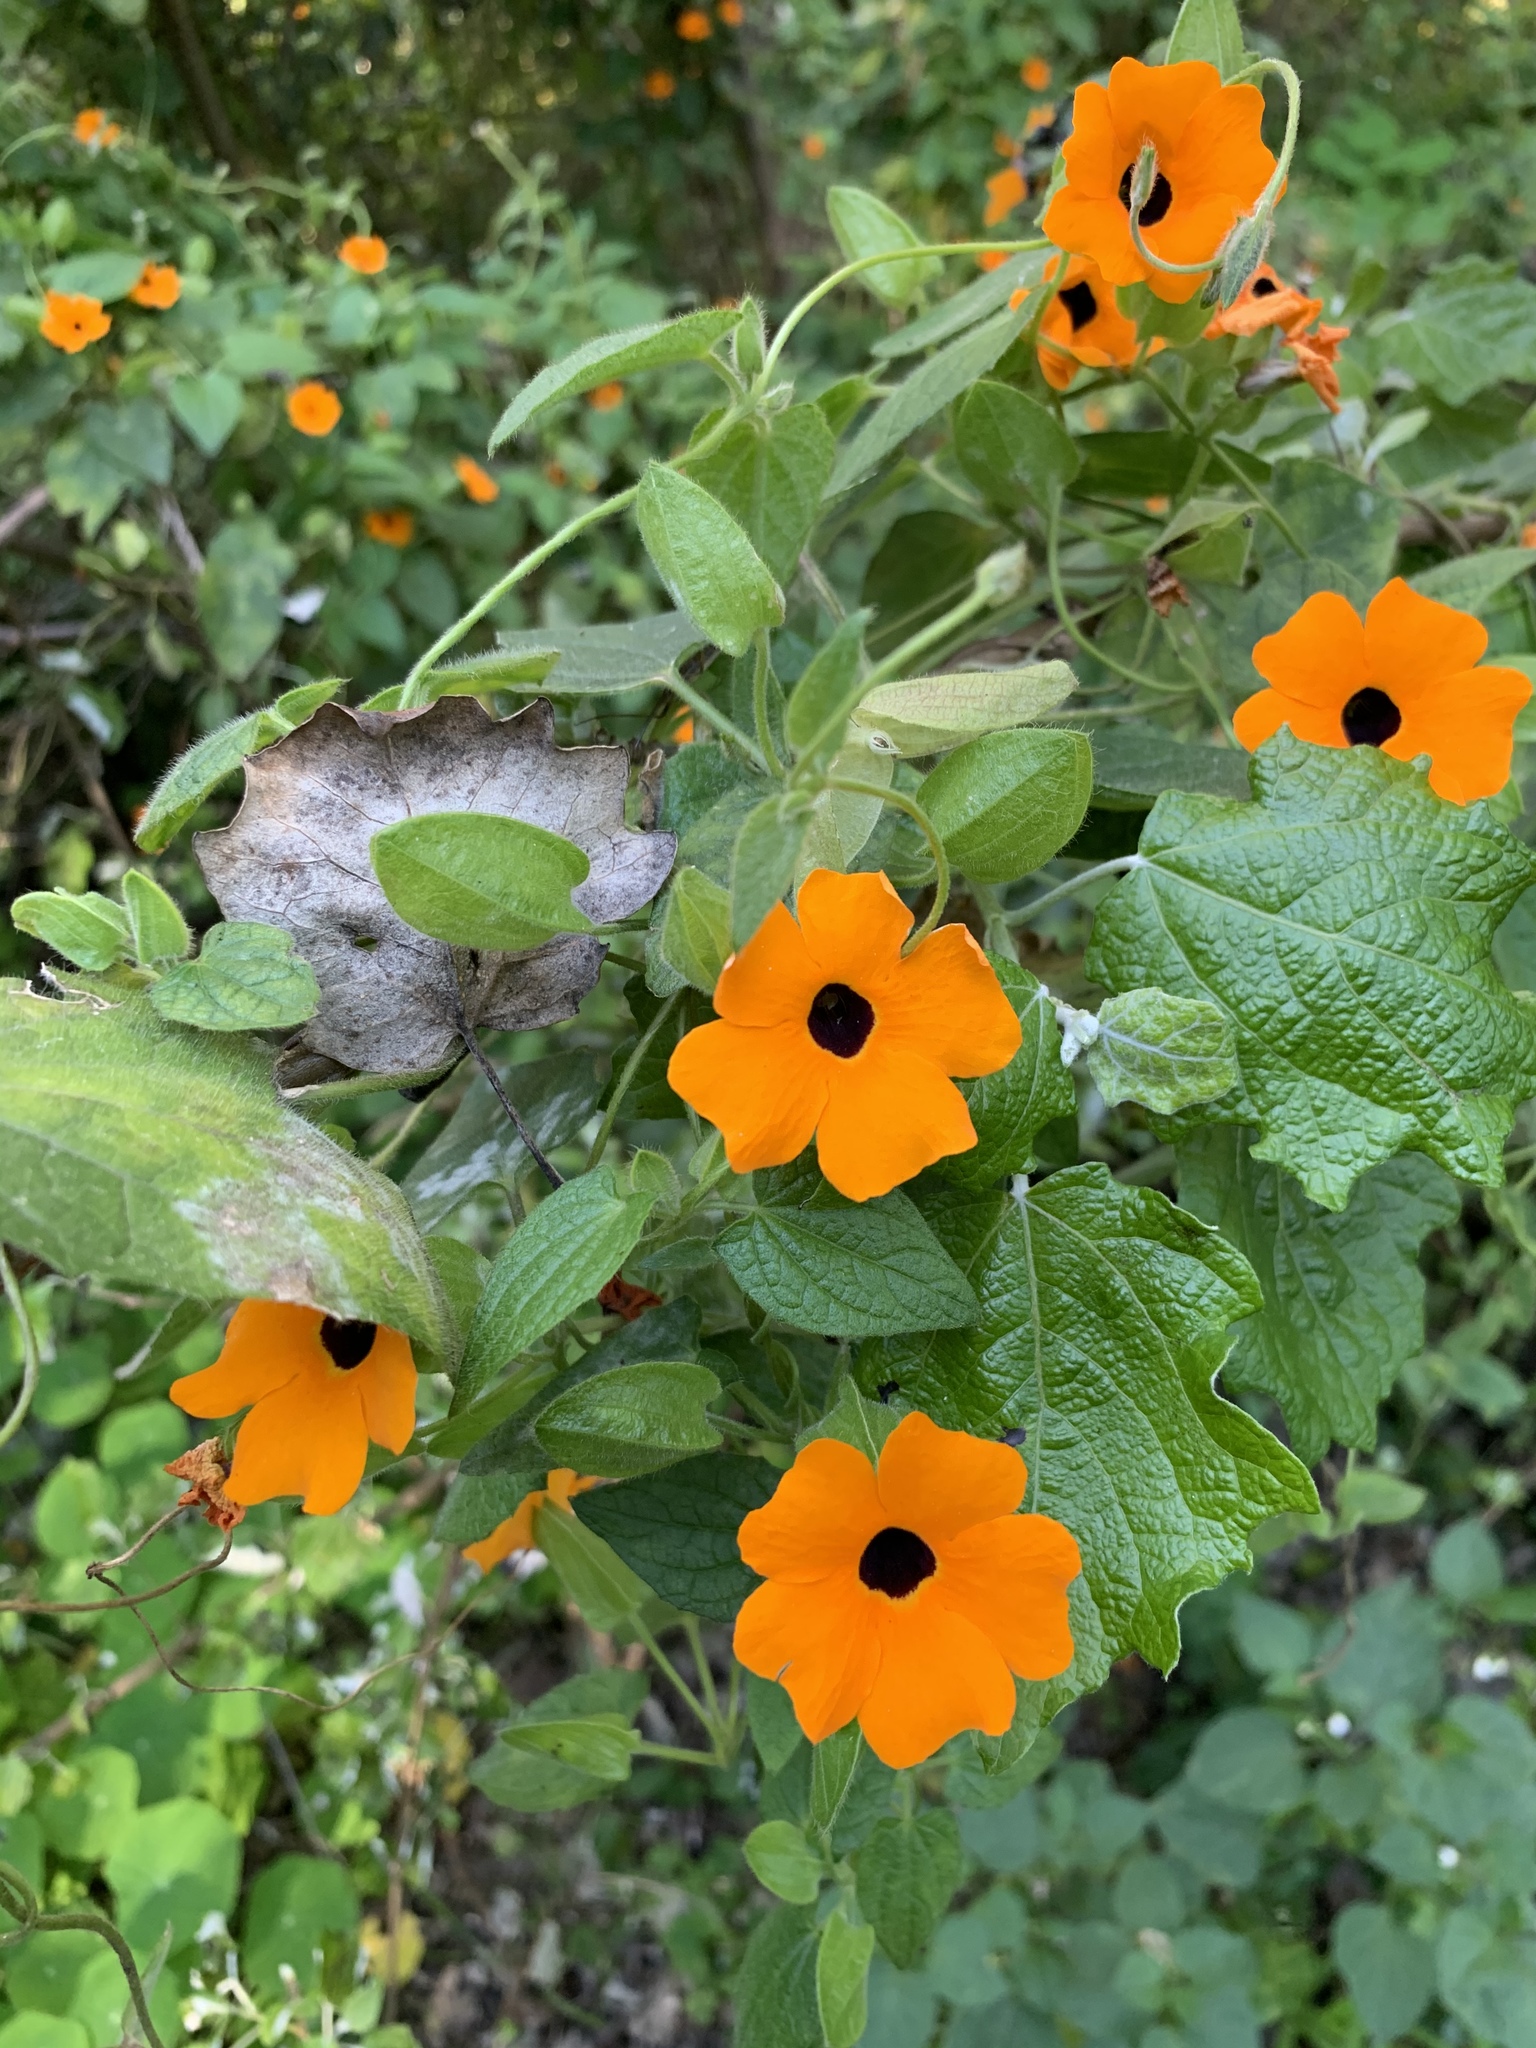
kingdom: Plantae
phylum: Tracheophyta
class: Magnoliopsida
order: Lamiales
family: Acanthaceae
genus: Thunbergia
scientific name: Thunbergia alata
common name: Blackeyed susan vine
